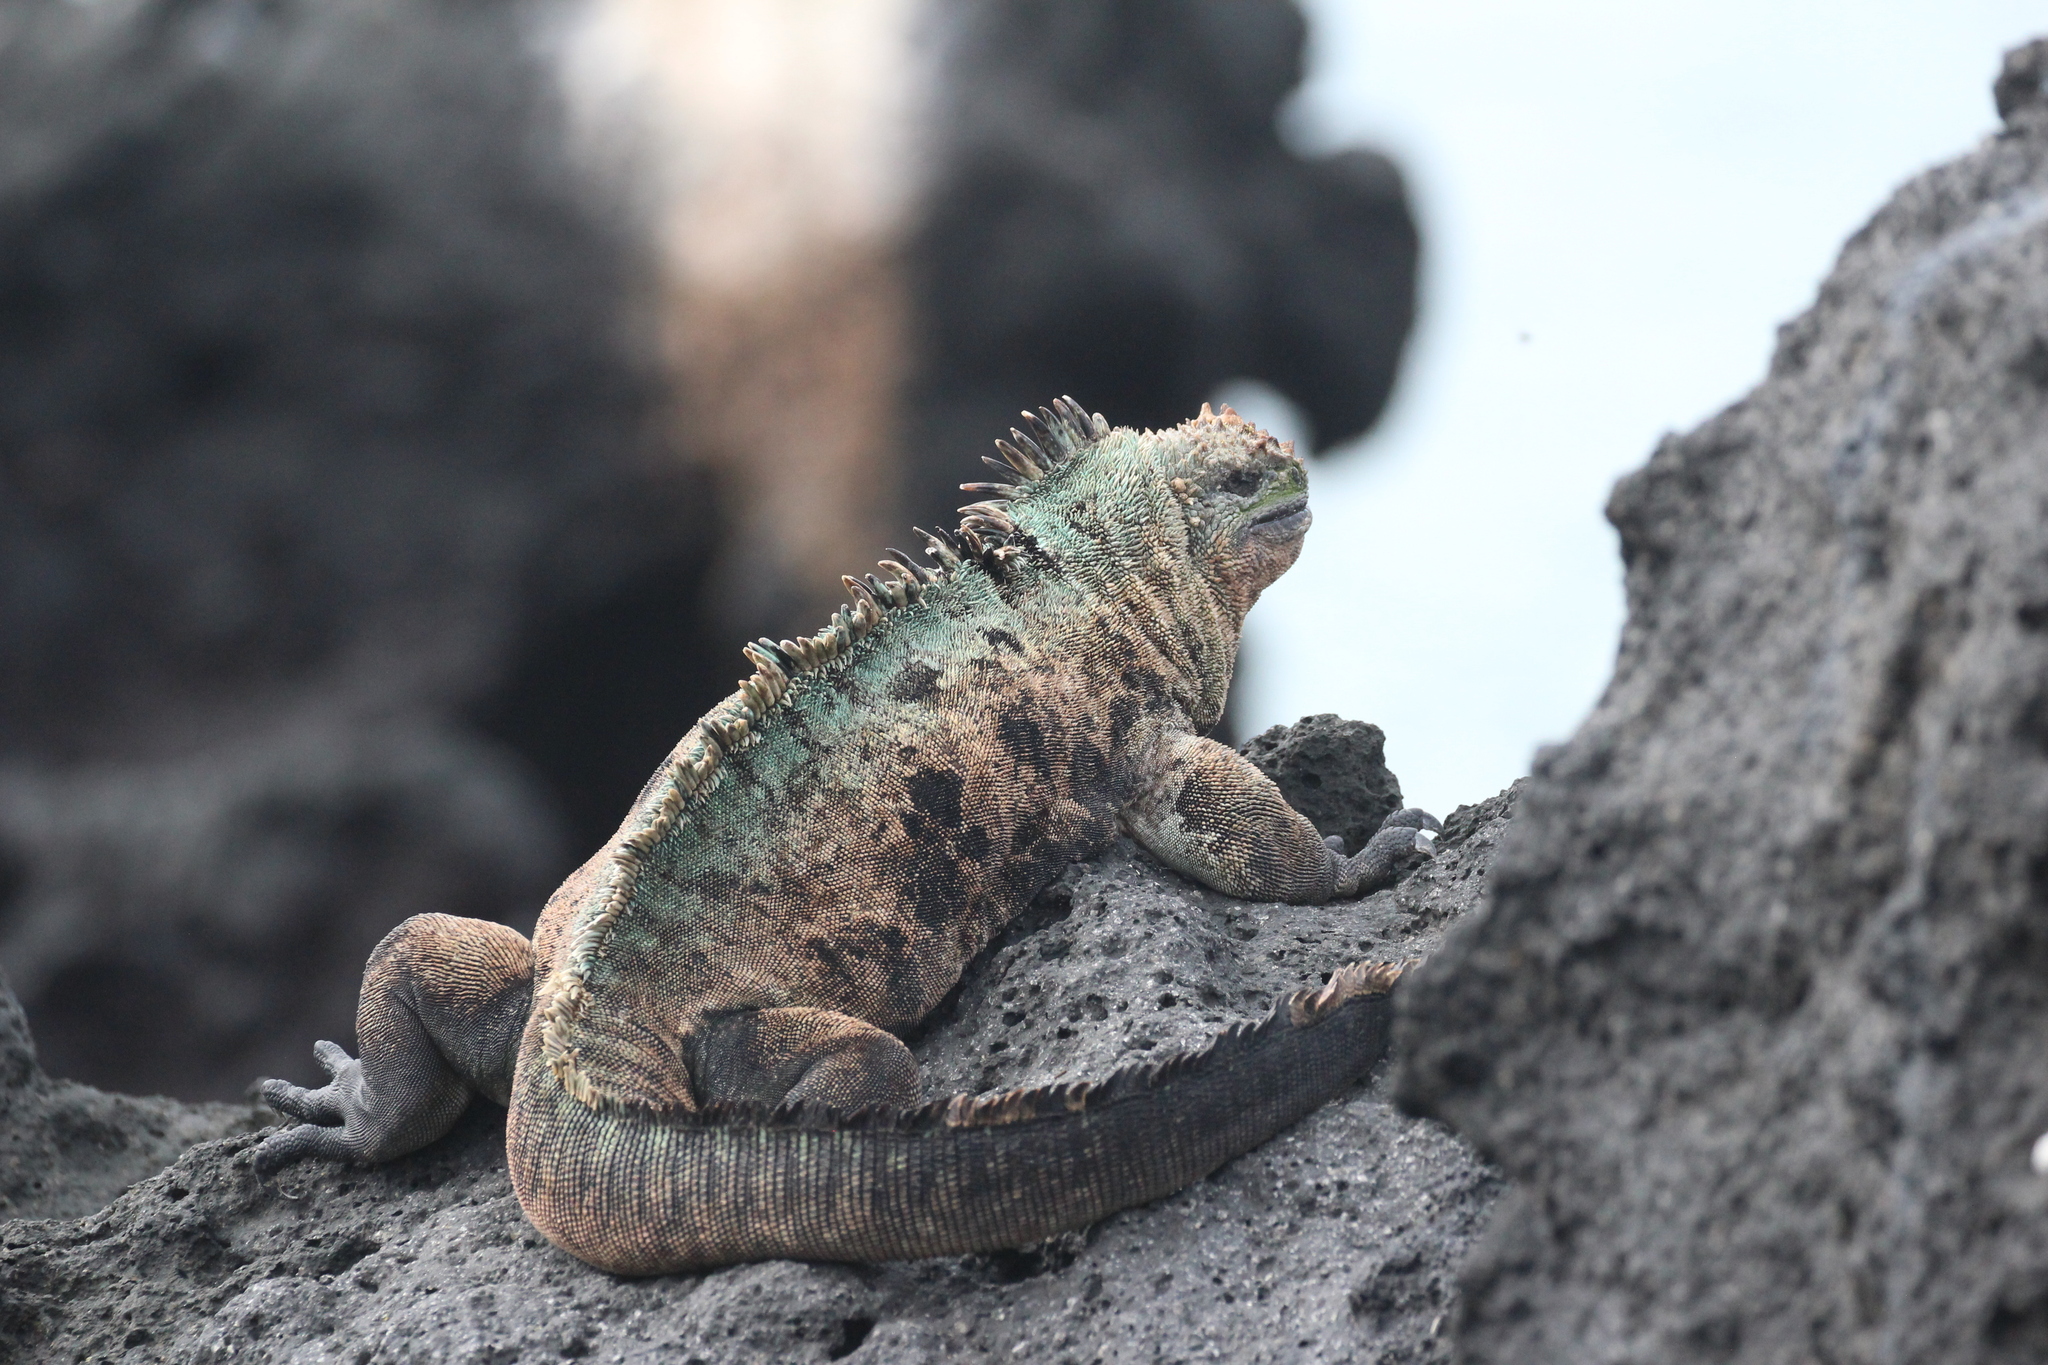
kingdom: Animalia
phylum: Chordata
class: Squamata
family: Iguanidae
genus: Amblyrhynchus
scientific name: Amblyrhynchus cristatus
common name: Marine iguana
